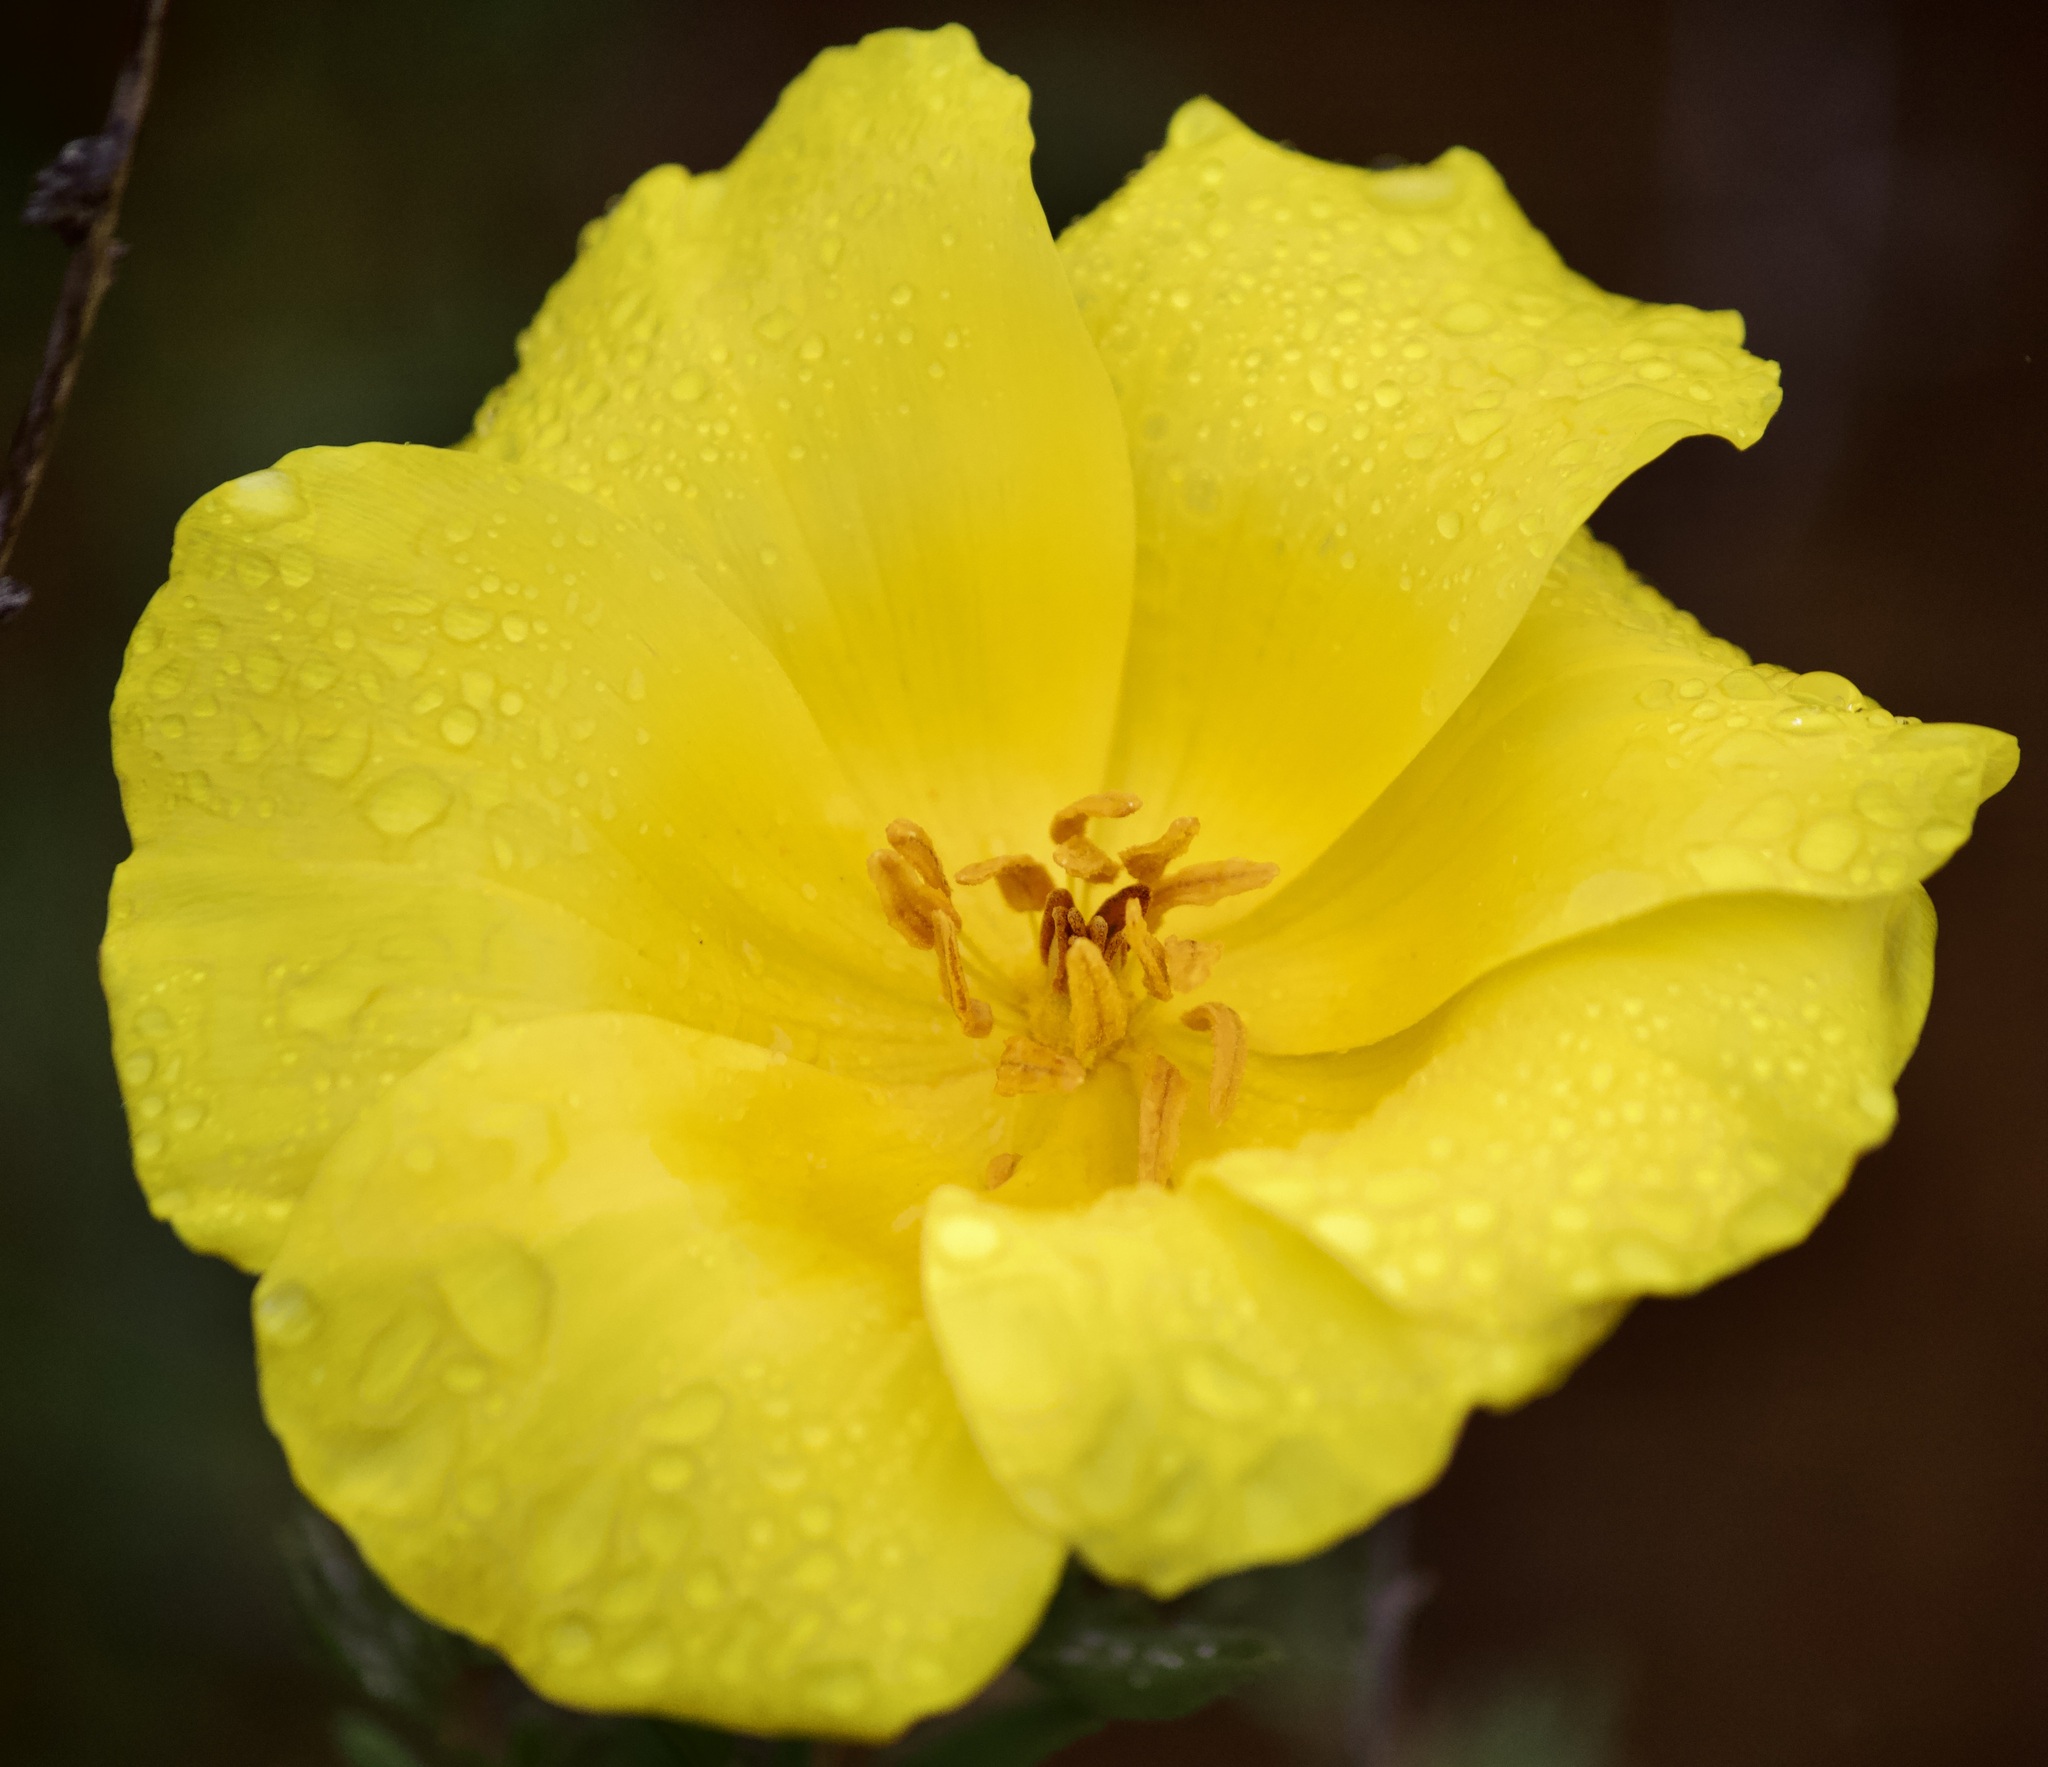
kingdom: Plantae
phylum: Tracheophyta
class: Magnoliopsida
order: Geraniales
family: Vivianiaceae
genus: Balbisia
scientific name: Balbisia peduncularis
